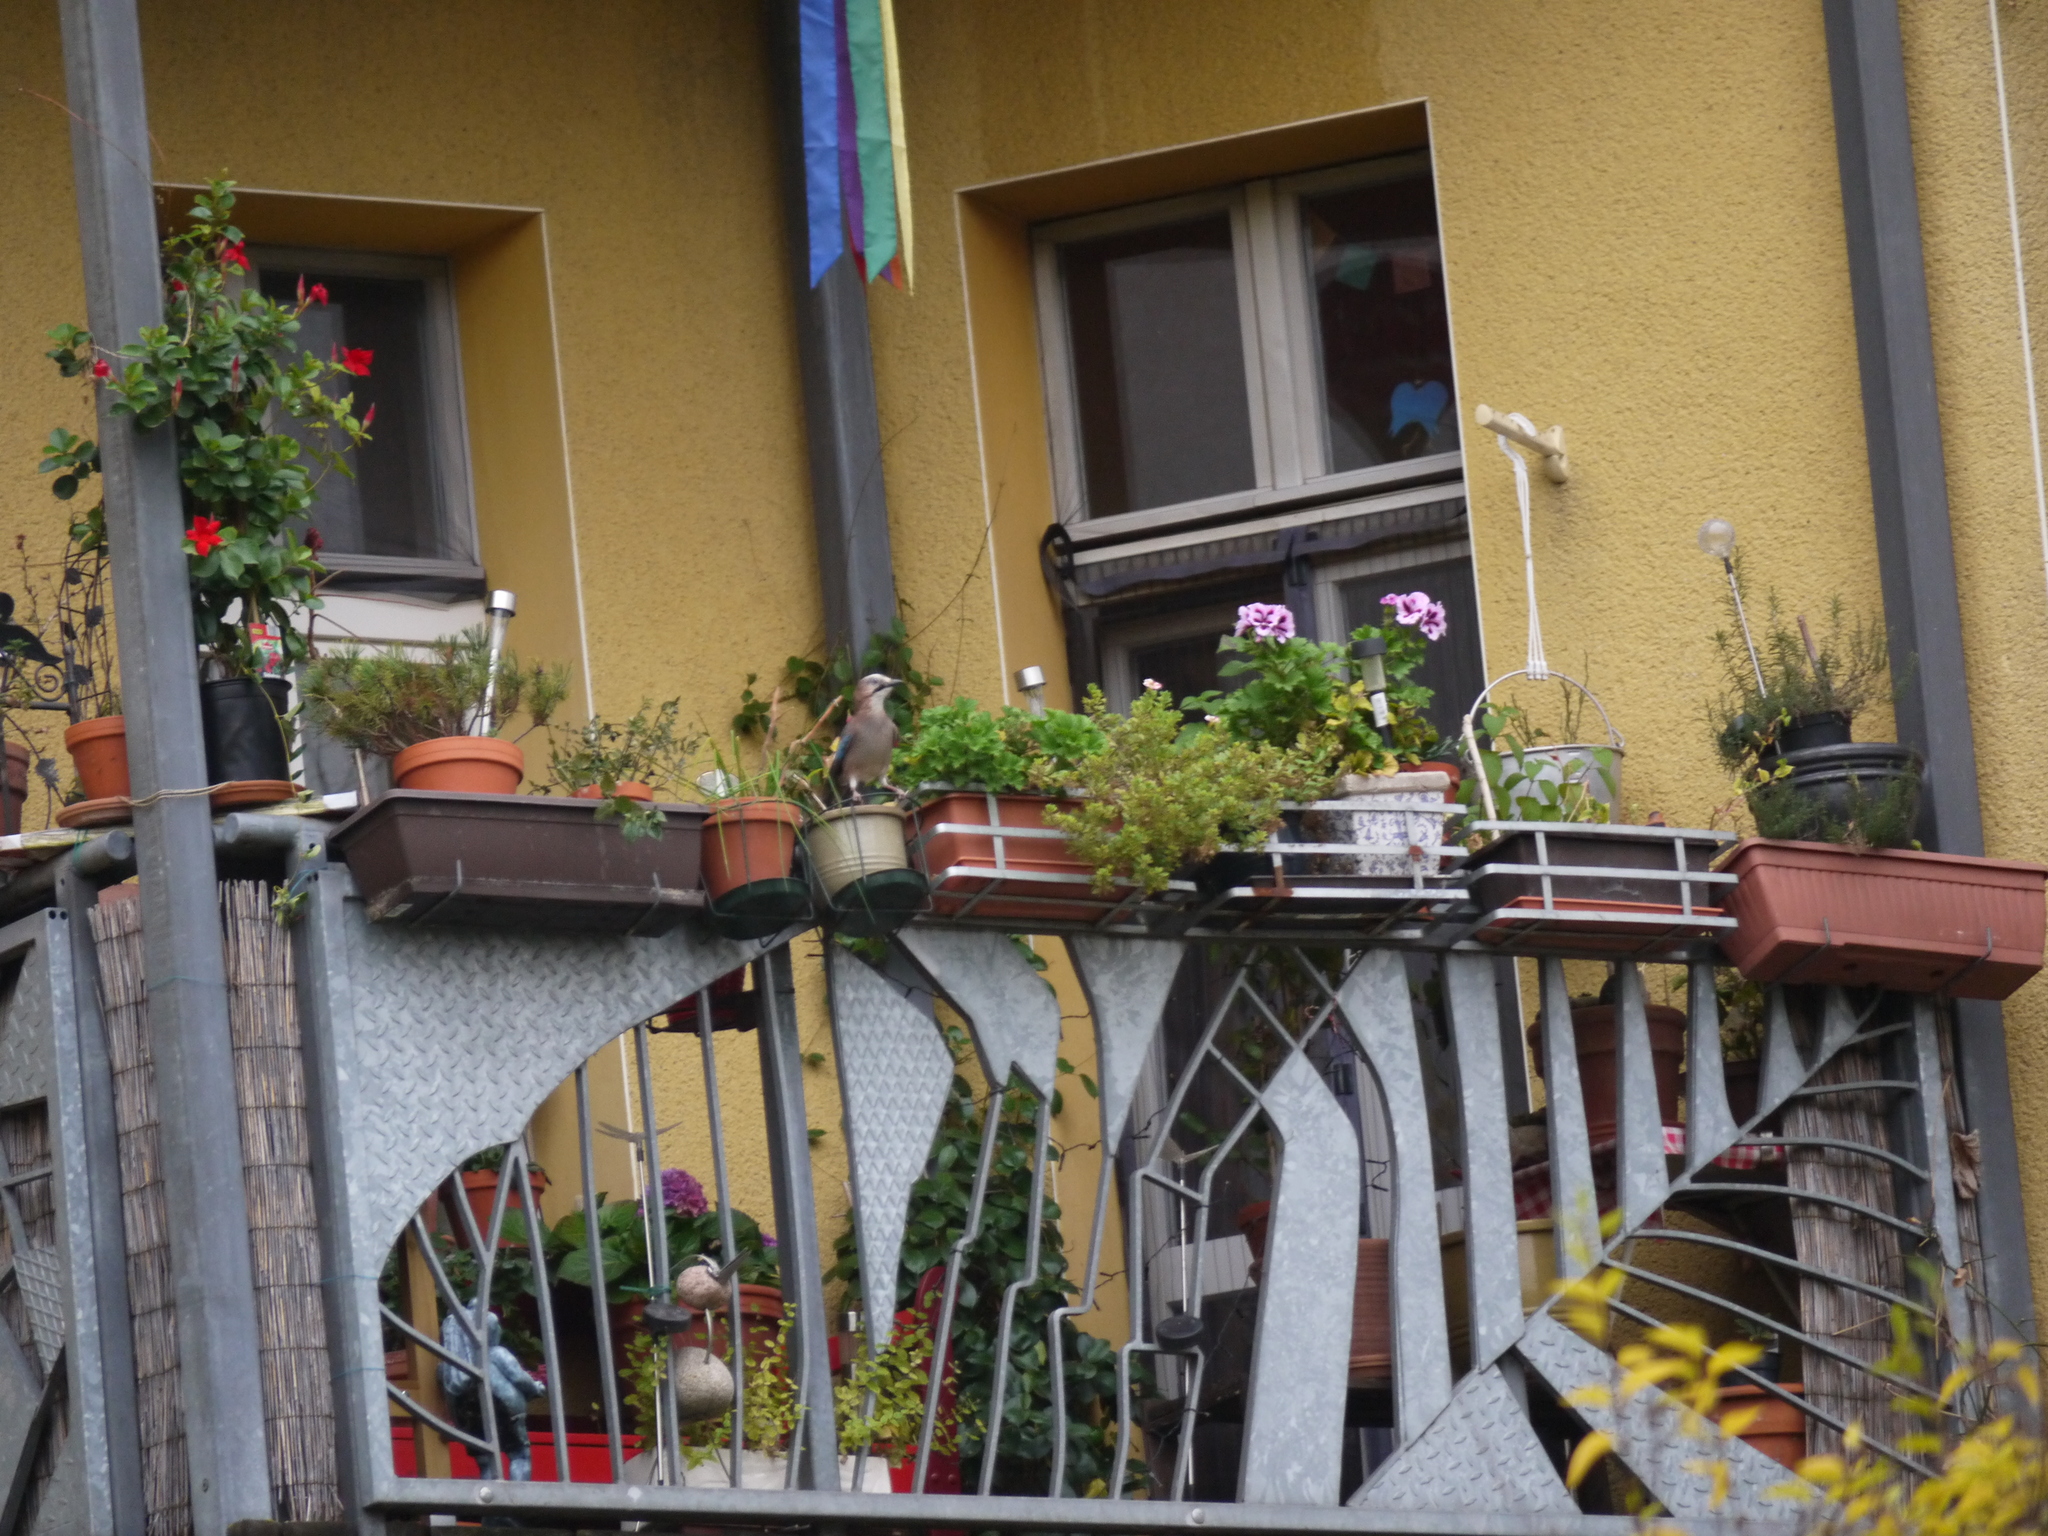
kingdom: Animalia
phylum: Chordata
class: Aves
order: Passeriformes
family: Corvidae
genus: Garrulus
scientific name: Garrulus glandarius
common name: Eurasian jay
